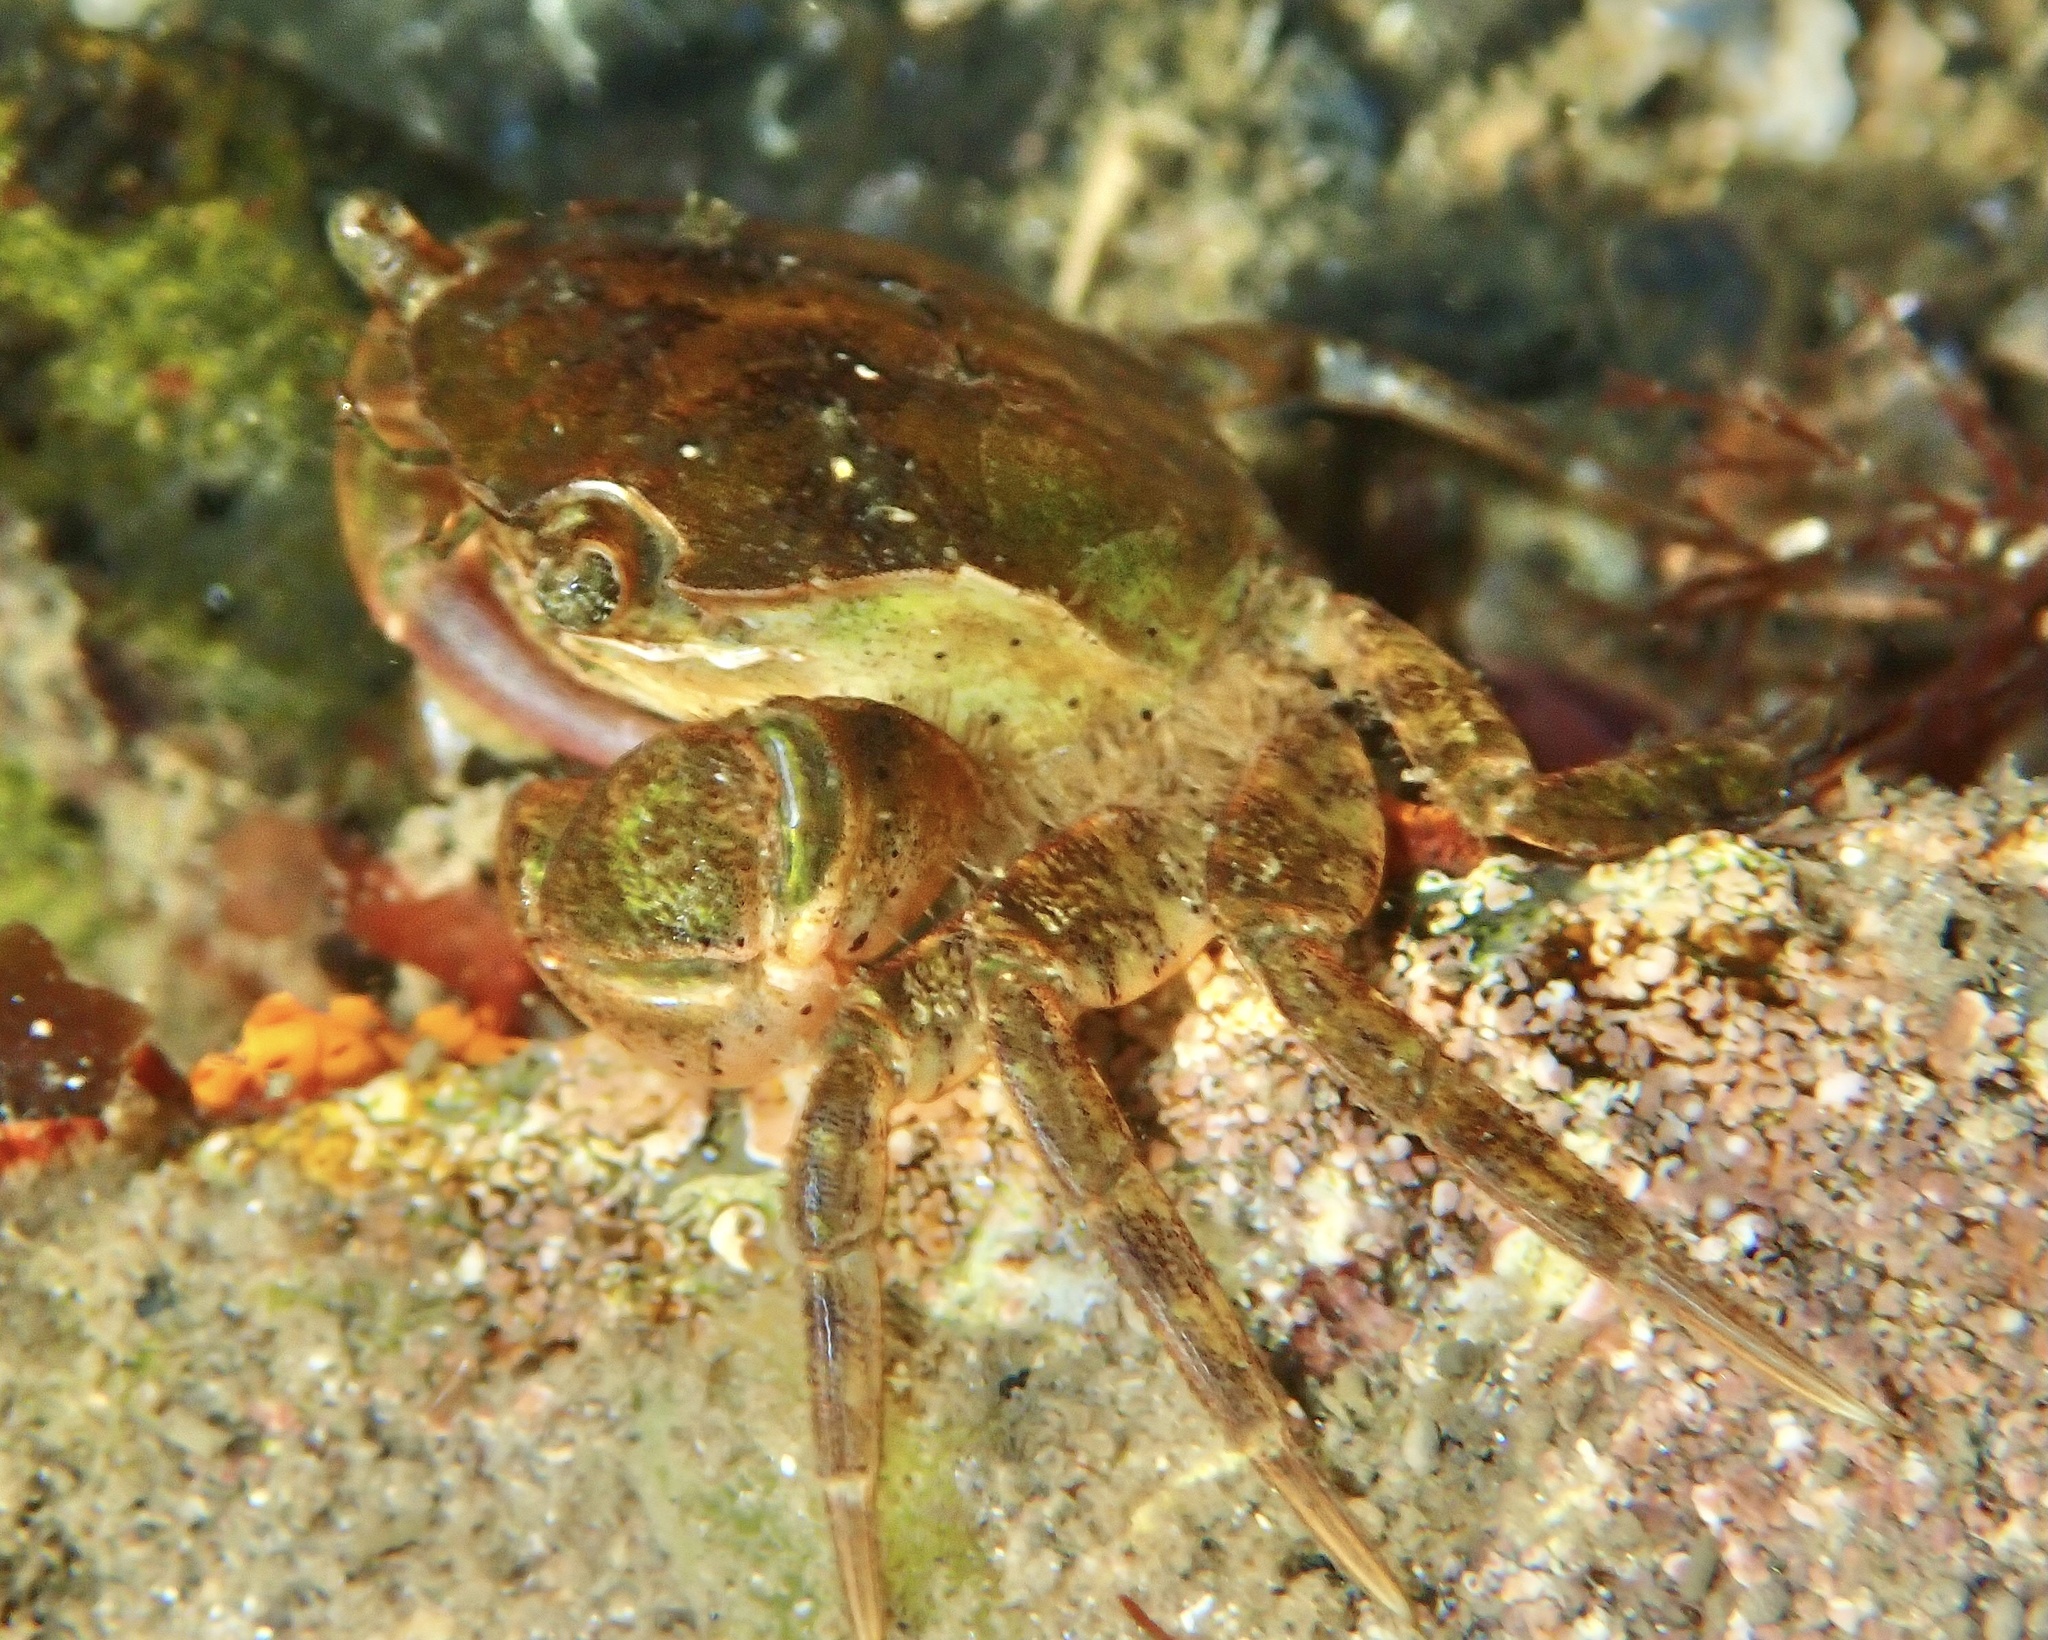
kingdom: Animalia
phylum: Arthropoda
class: Malacostraca
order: Decapoda
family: Varunidae
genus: Hemigrapsus
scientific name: Hemigrapsus takanoi
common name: Asian brush crab
